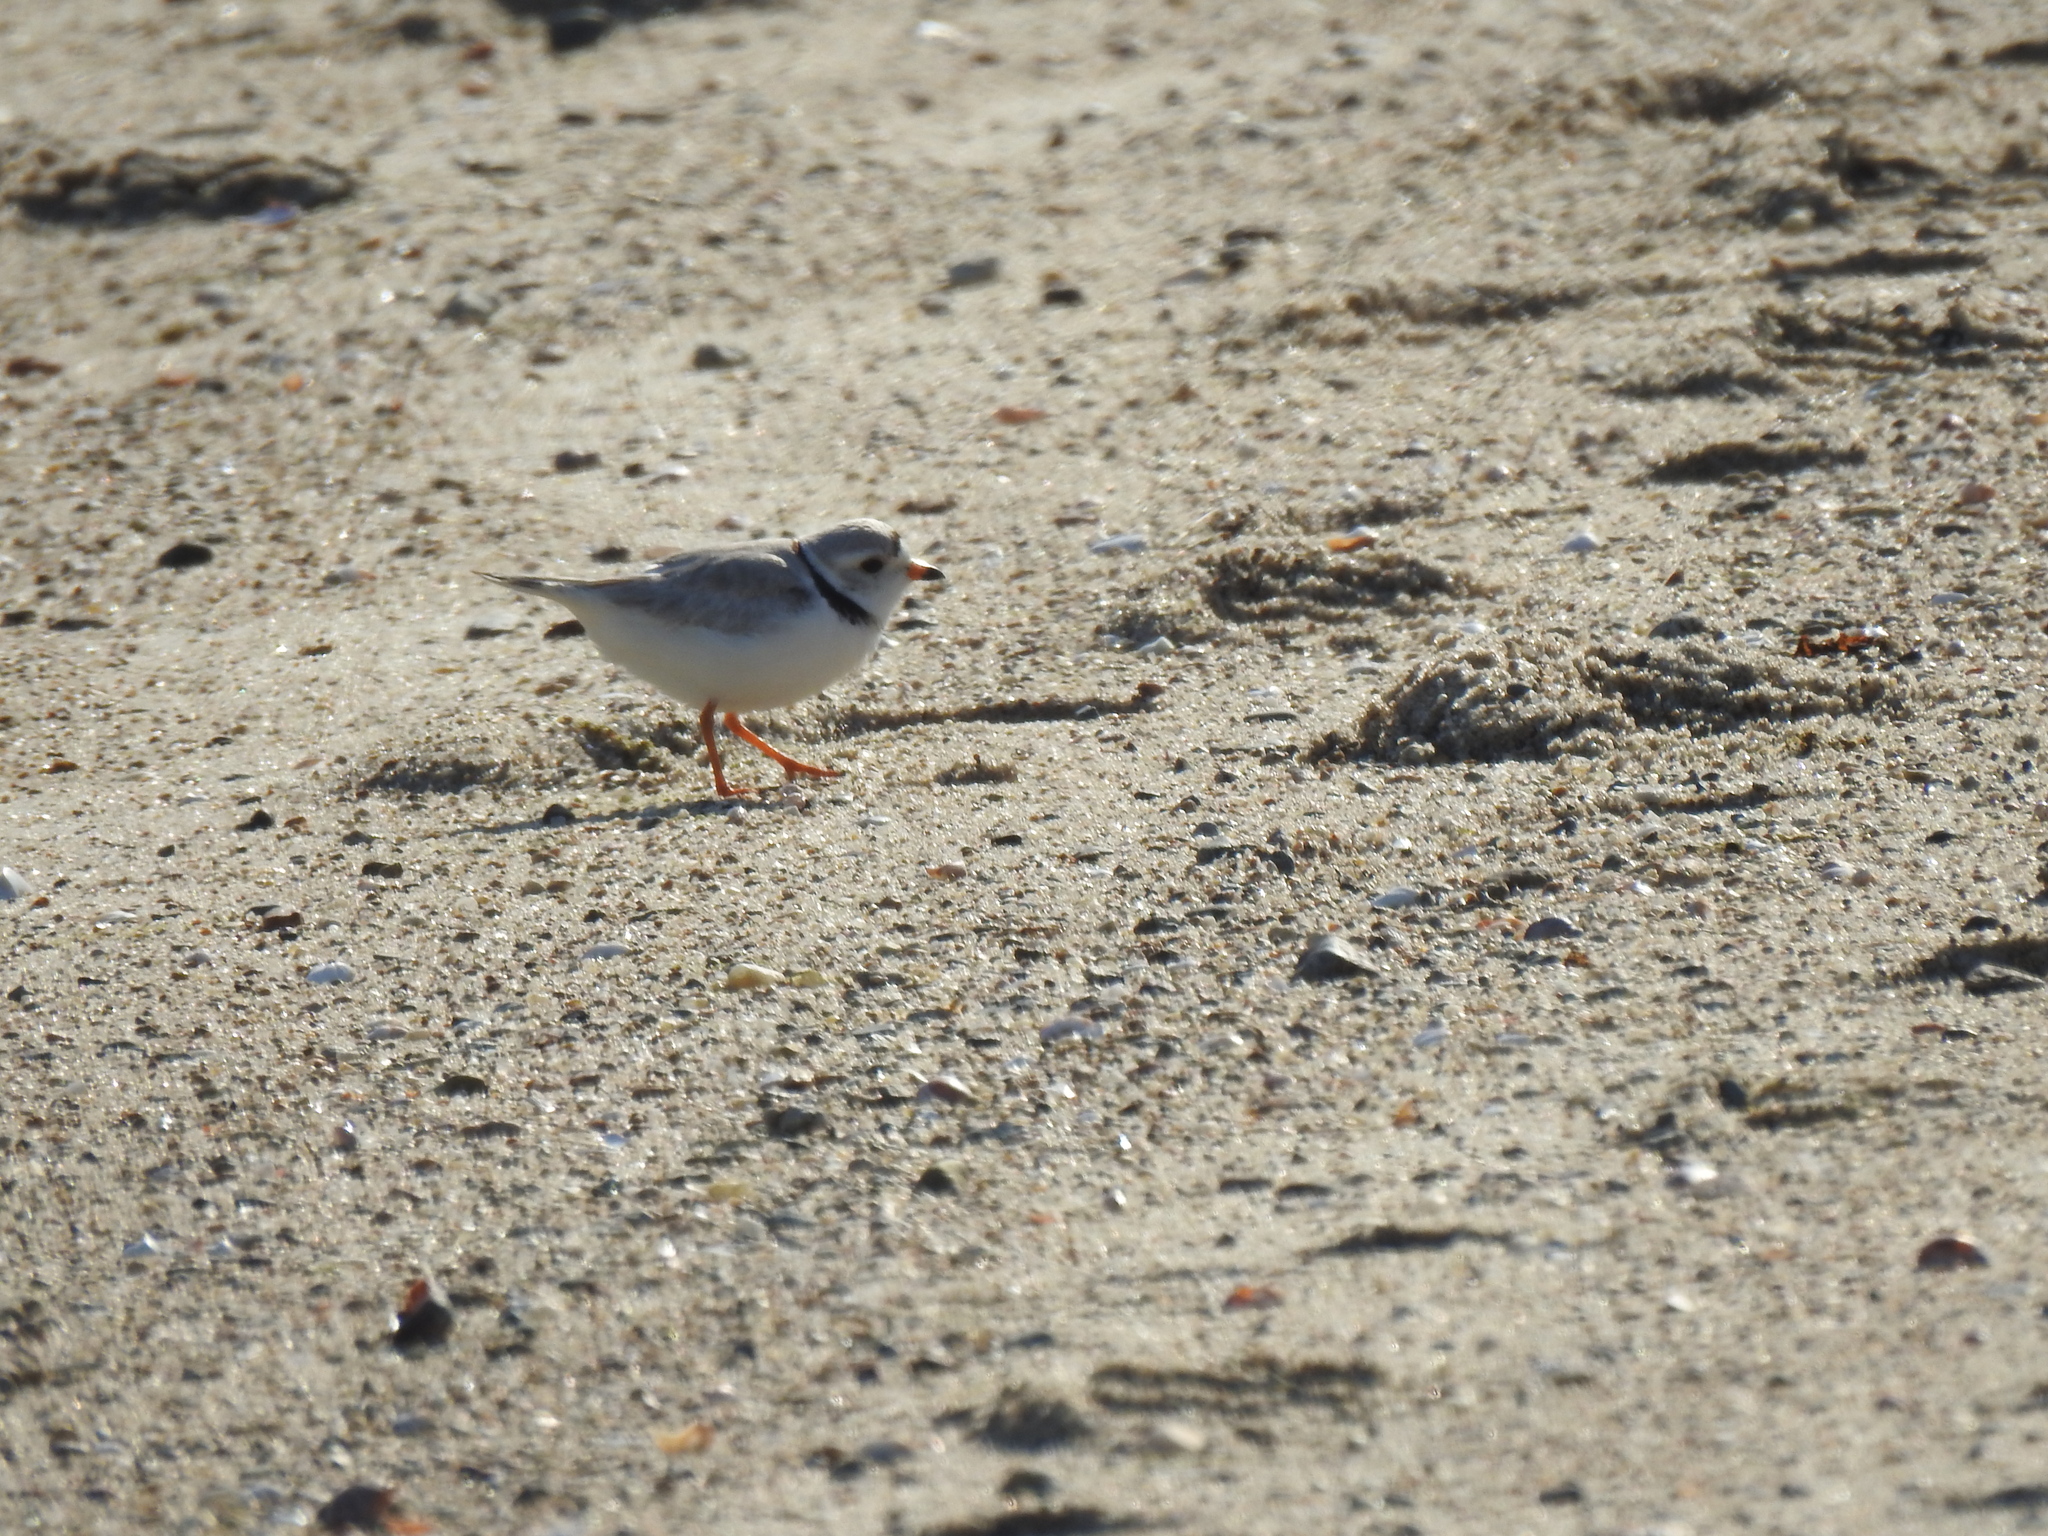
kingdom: Animalia
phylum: Chordata
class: Aves
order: Charadriiformes
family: Charadriidae
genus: Charadrius
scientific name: Charadrius melodus
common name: Piping plover
